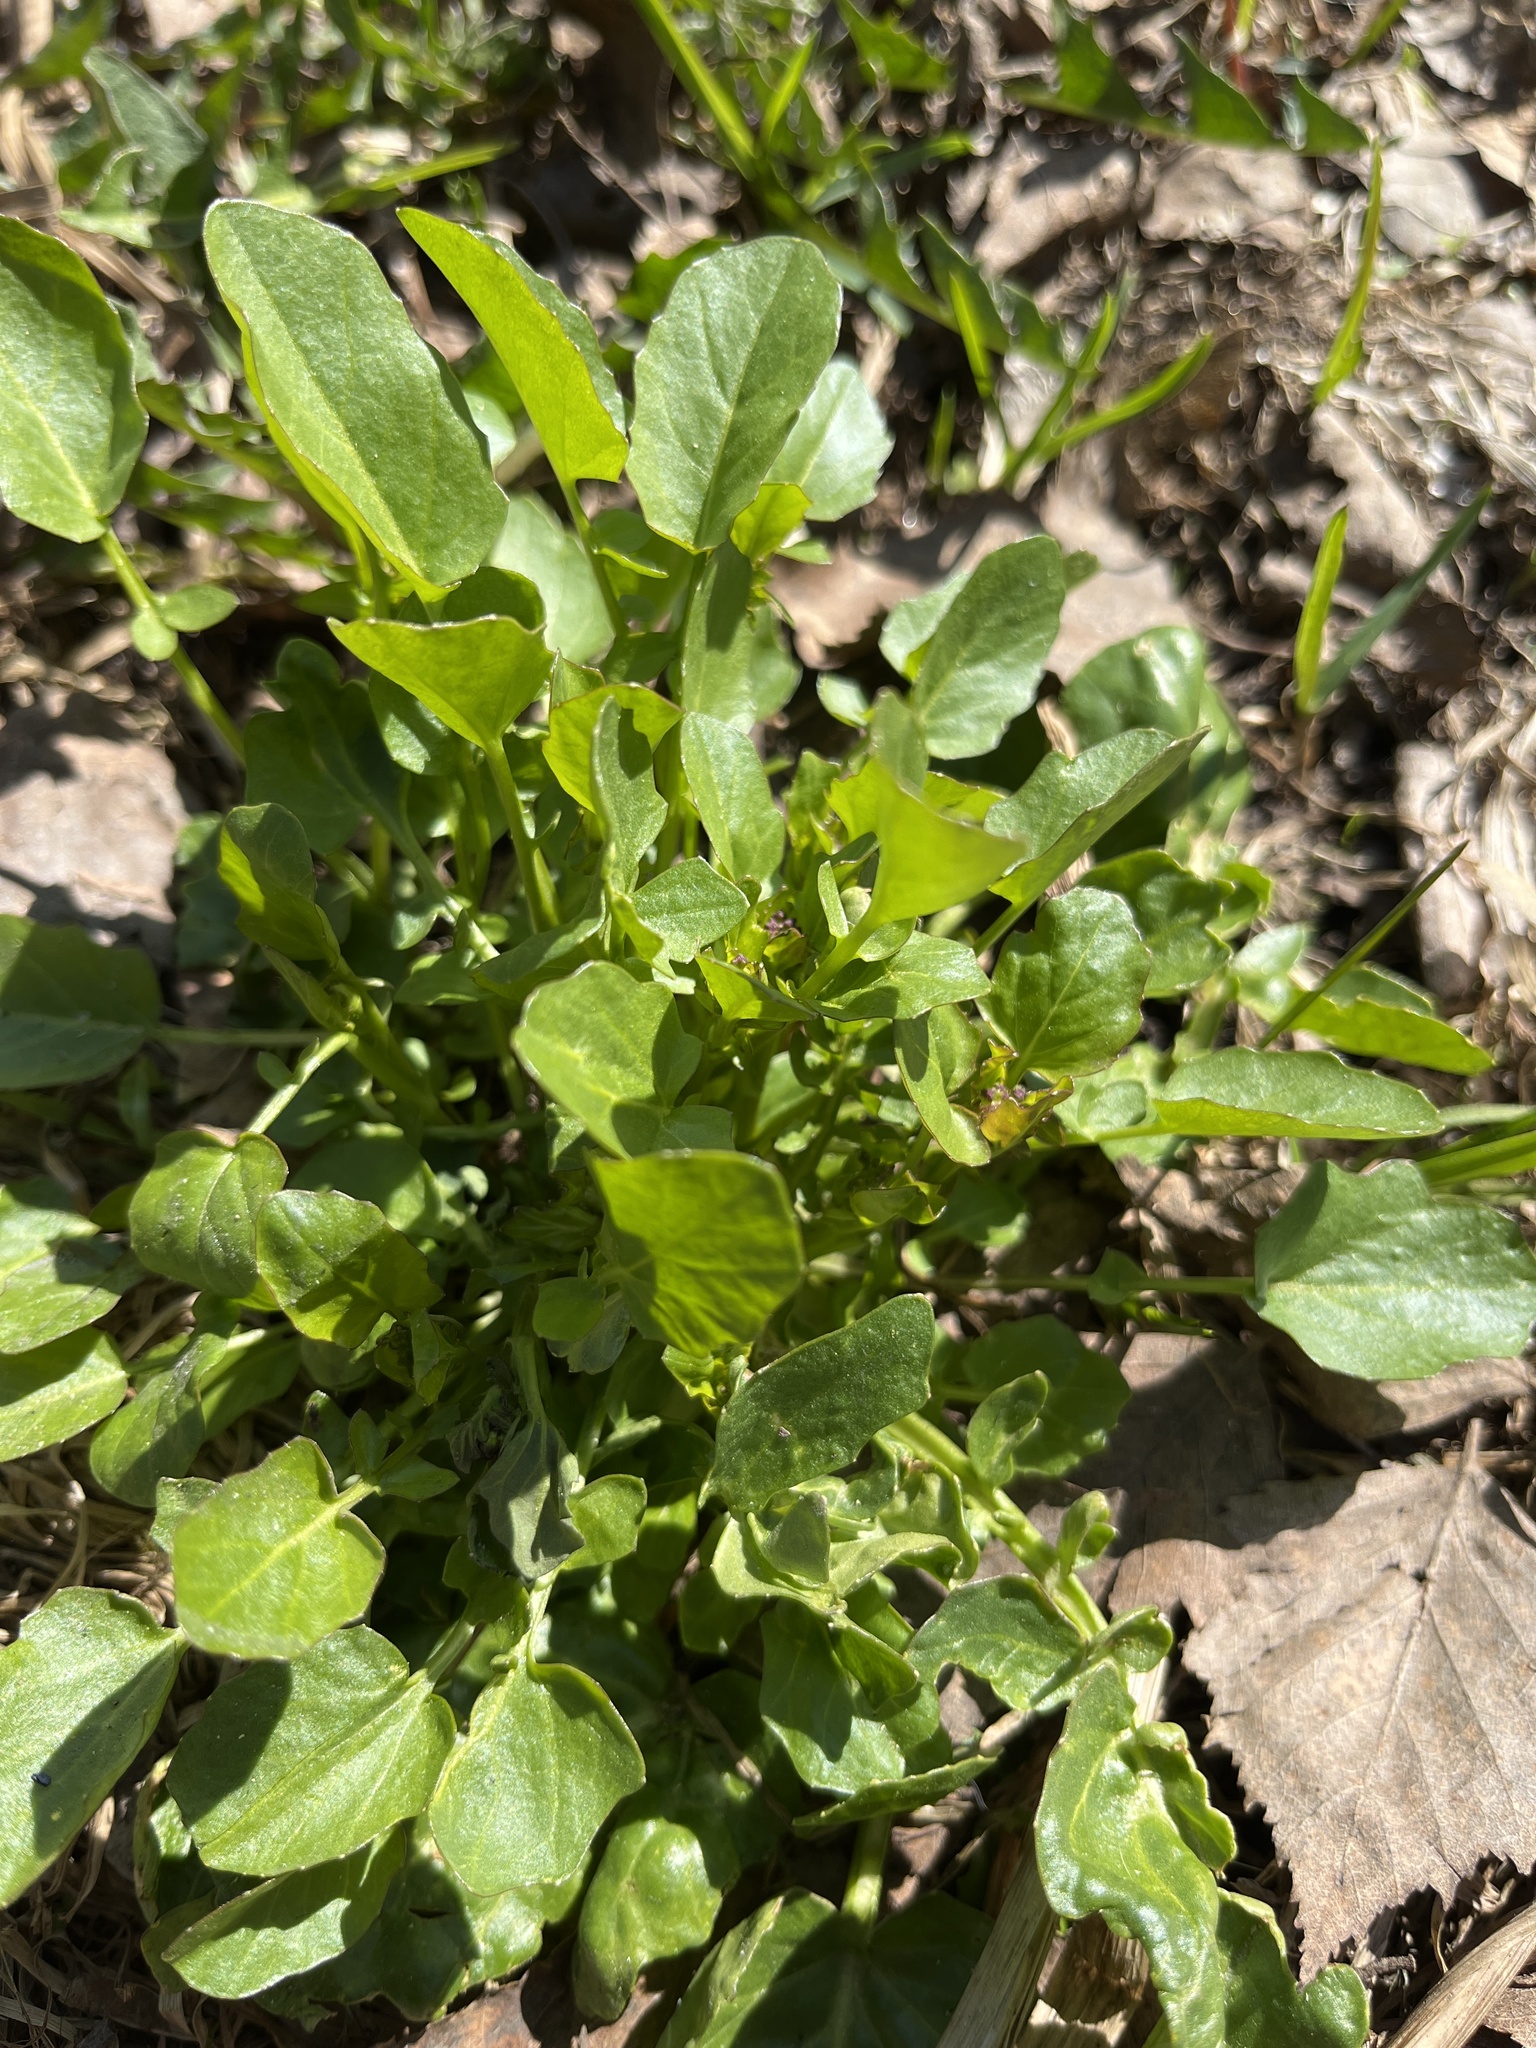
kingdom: Plantae
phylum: Tracheophyta
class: Magnoliopsida
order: Brassicales
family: Brassicaceae
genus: Barbarea
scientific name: Barbarea vulgaris
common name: Cressy-greens
